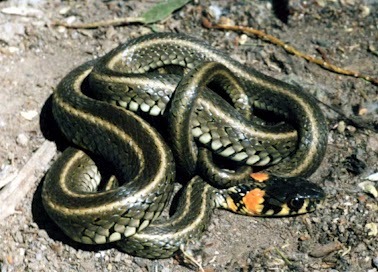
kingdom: Animalia
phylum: Chordata
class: Squamata
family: Colubridae
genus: Natrix
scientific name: Natrix natrix
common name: Grass snake
